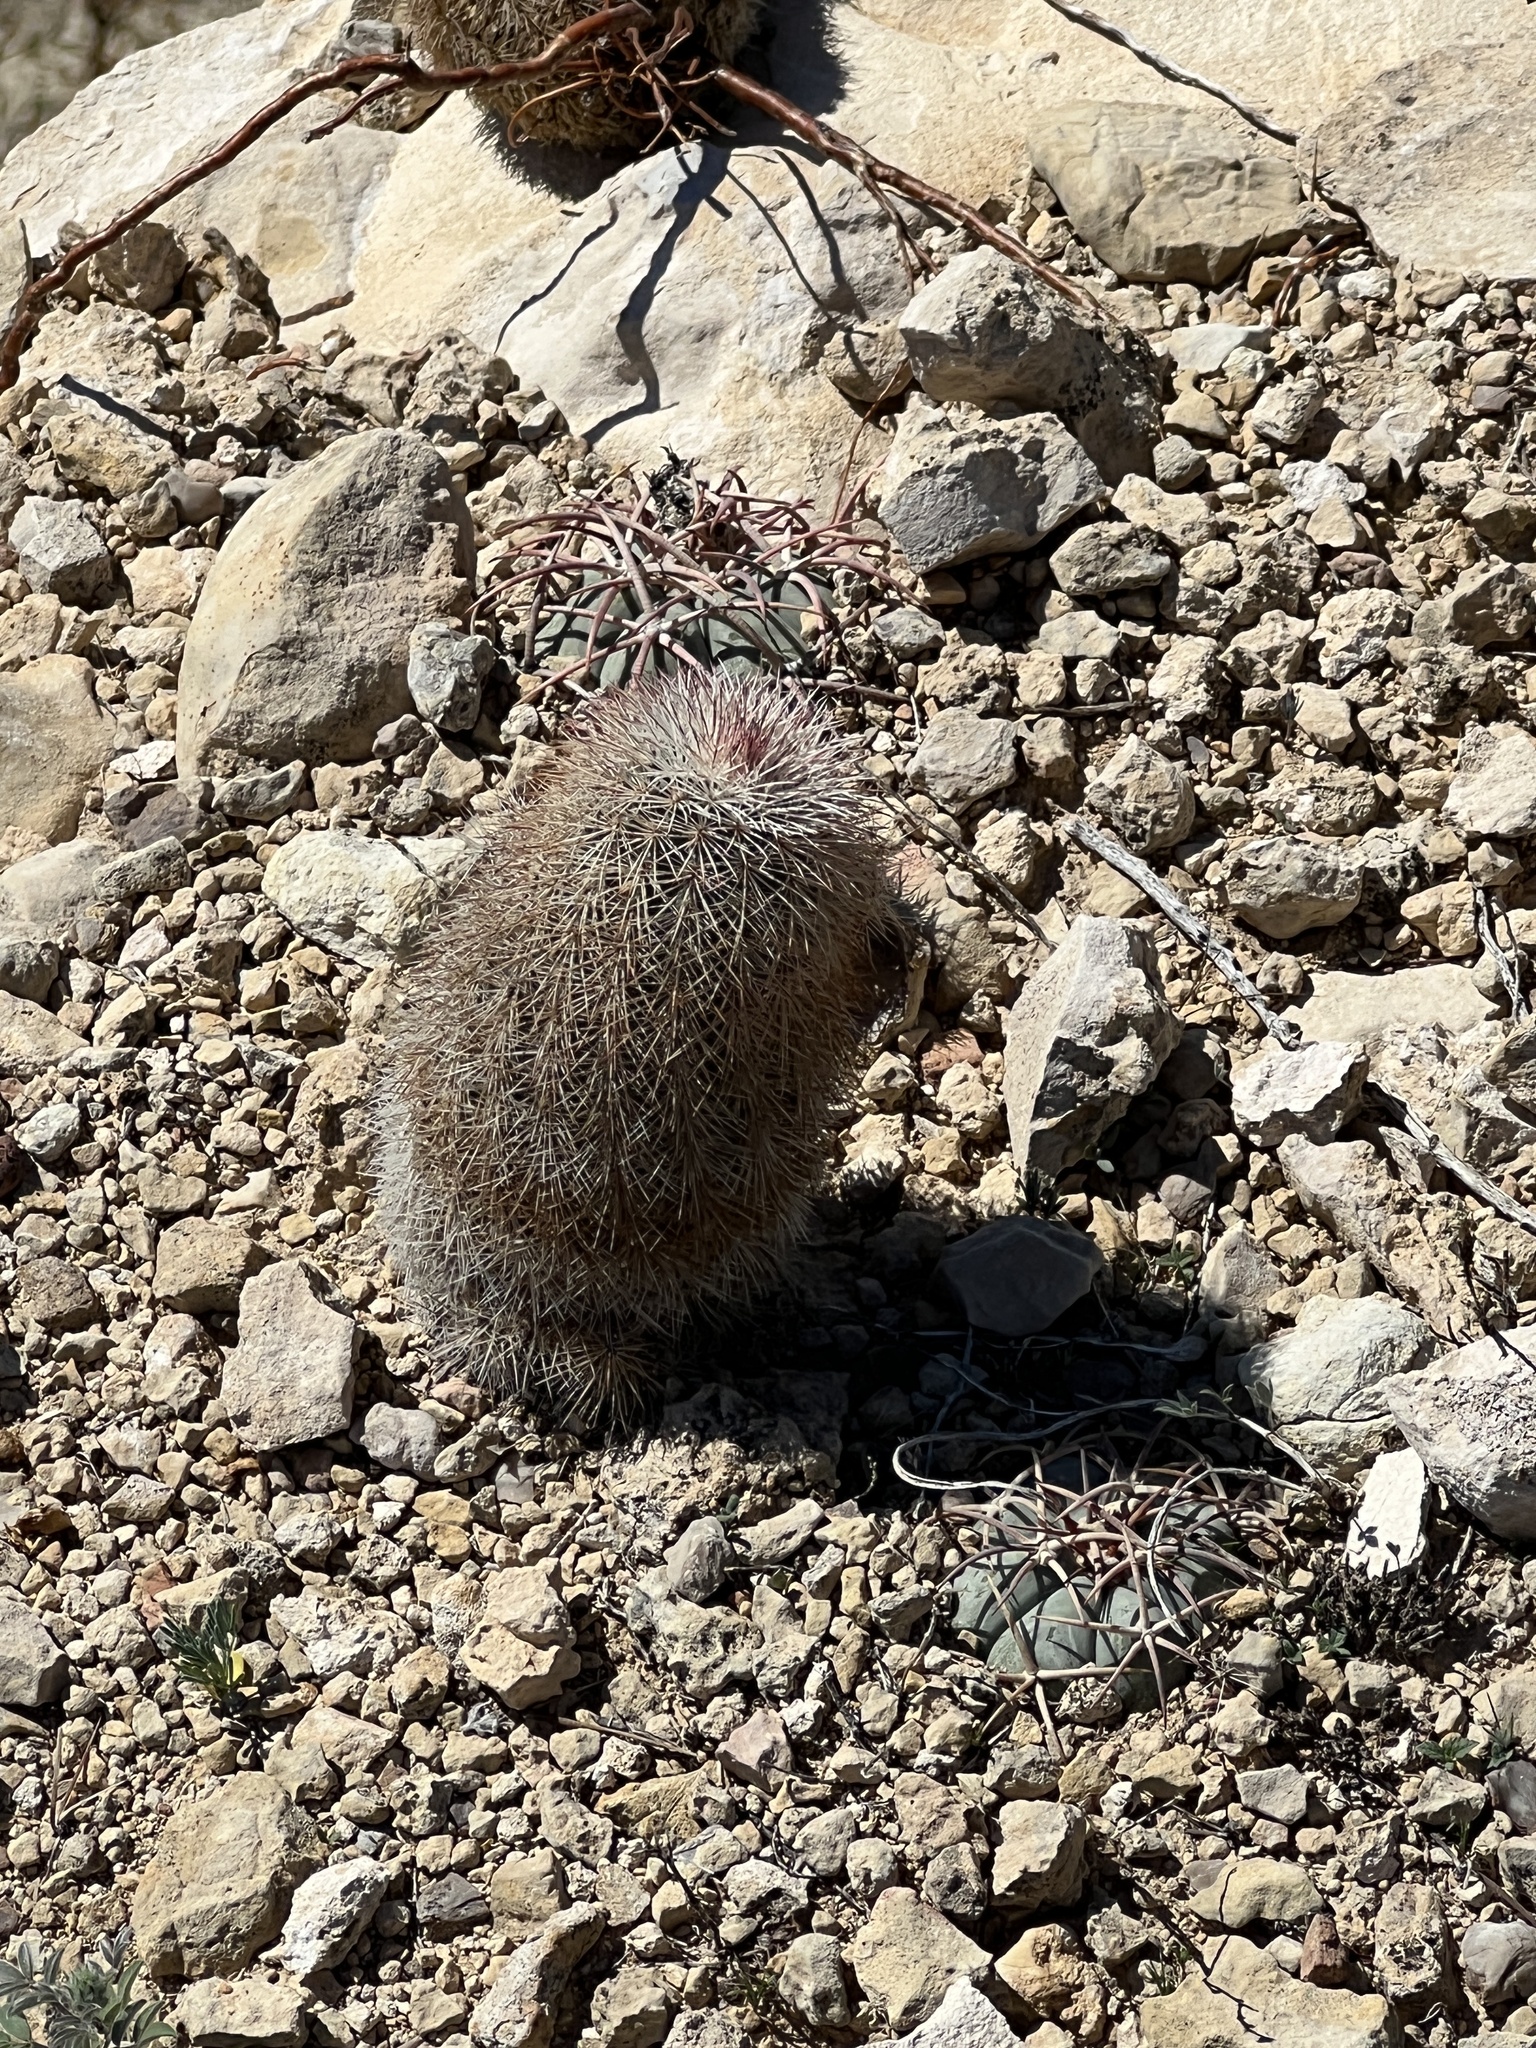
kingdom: Plantae
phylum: Tracheophyta
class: Magnoliopsida
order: Caryophyllales
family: Cactaceae
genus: Echinocereus
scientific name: Echinocereus dasyacanthus
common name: Spiny hedgehog cactus
